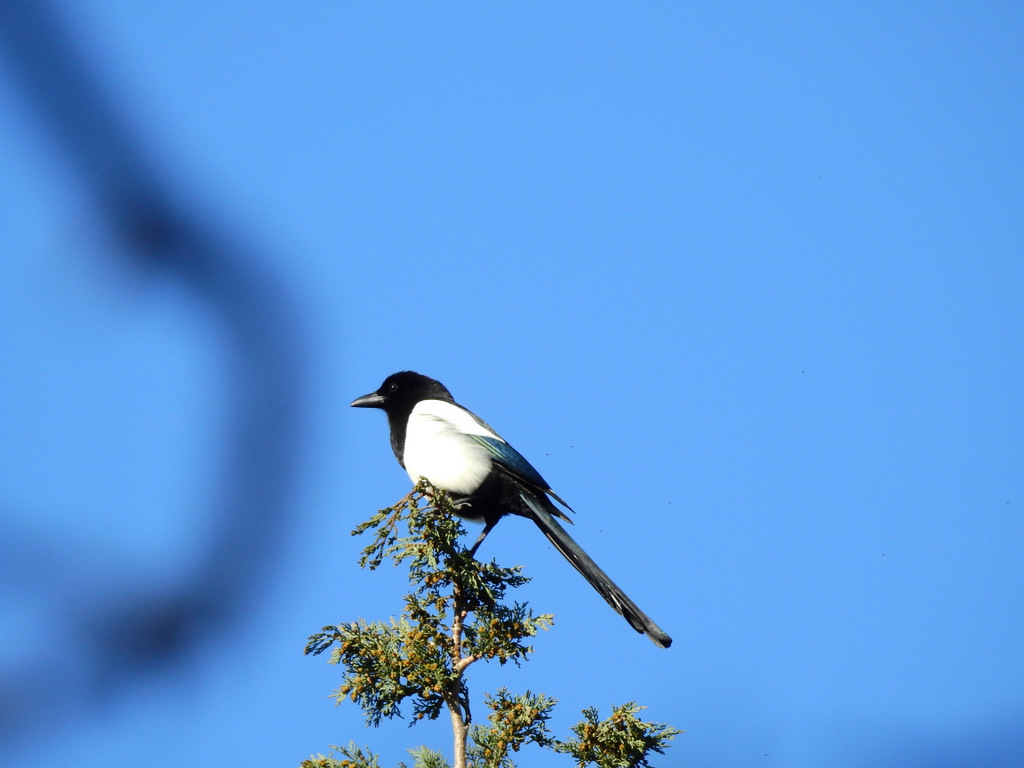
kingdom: Animalia
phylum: Chordata
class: Aves
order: Passeriformes
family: Corvidae
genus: Pica
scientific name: Pica pica
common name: Eurasian magpie
